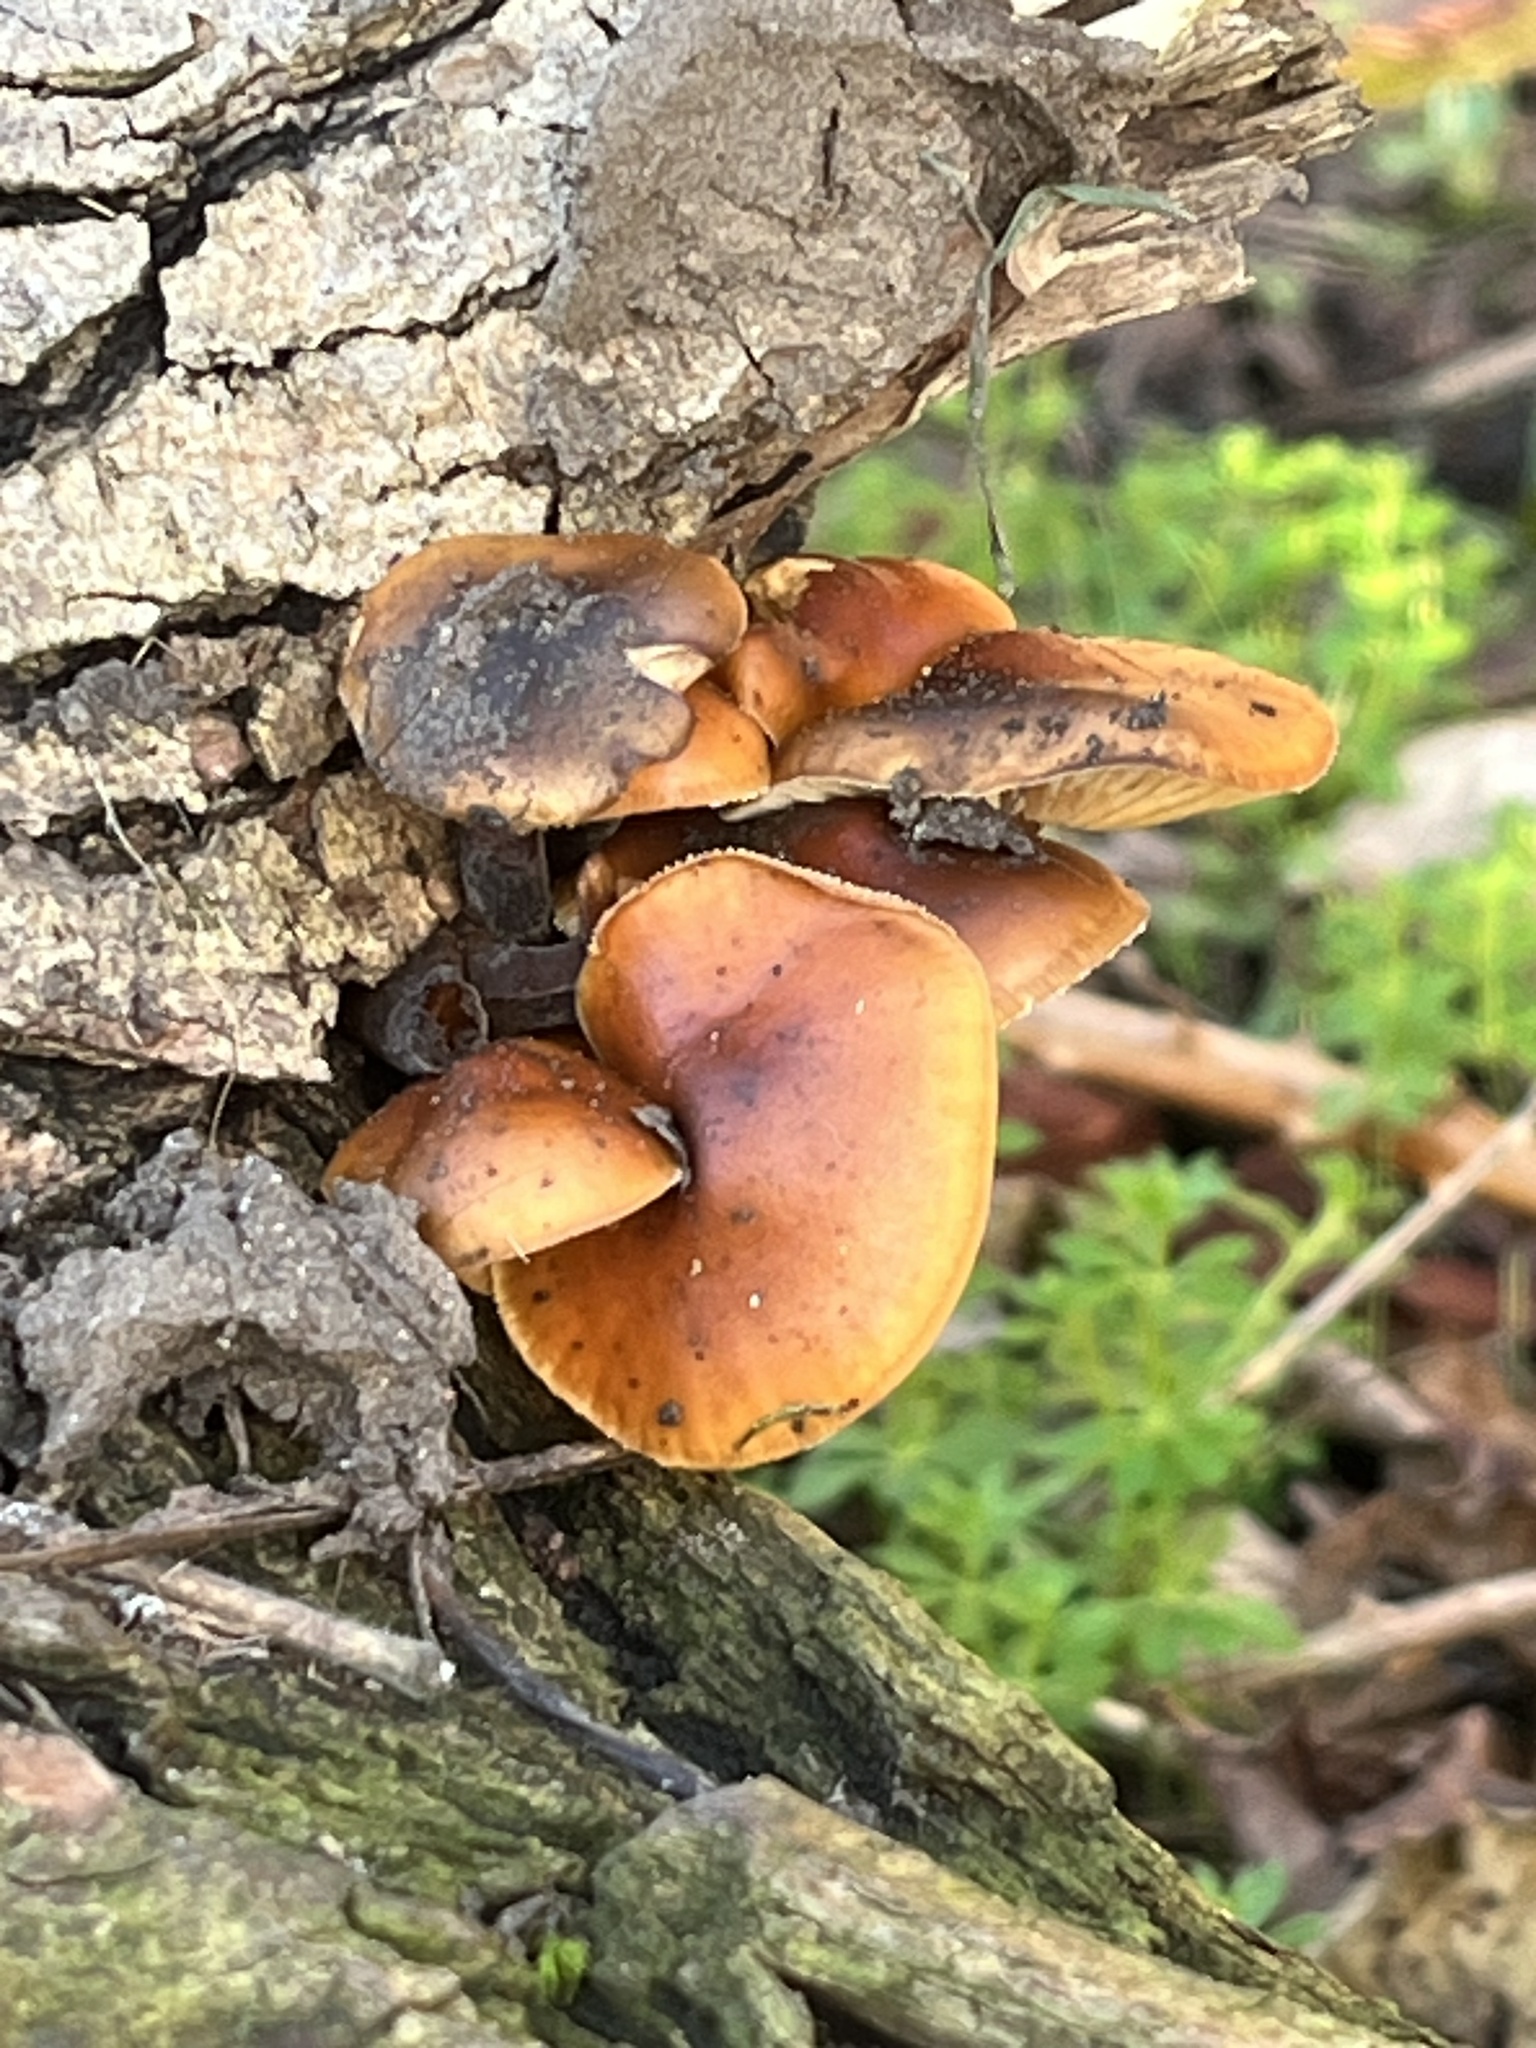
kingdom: Fungi
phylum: Basidiomycota
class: Agaricomycetes
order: Agaricales
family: Physalacriaceae
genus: Flammulina
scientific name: Flammulina
